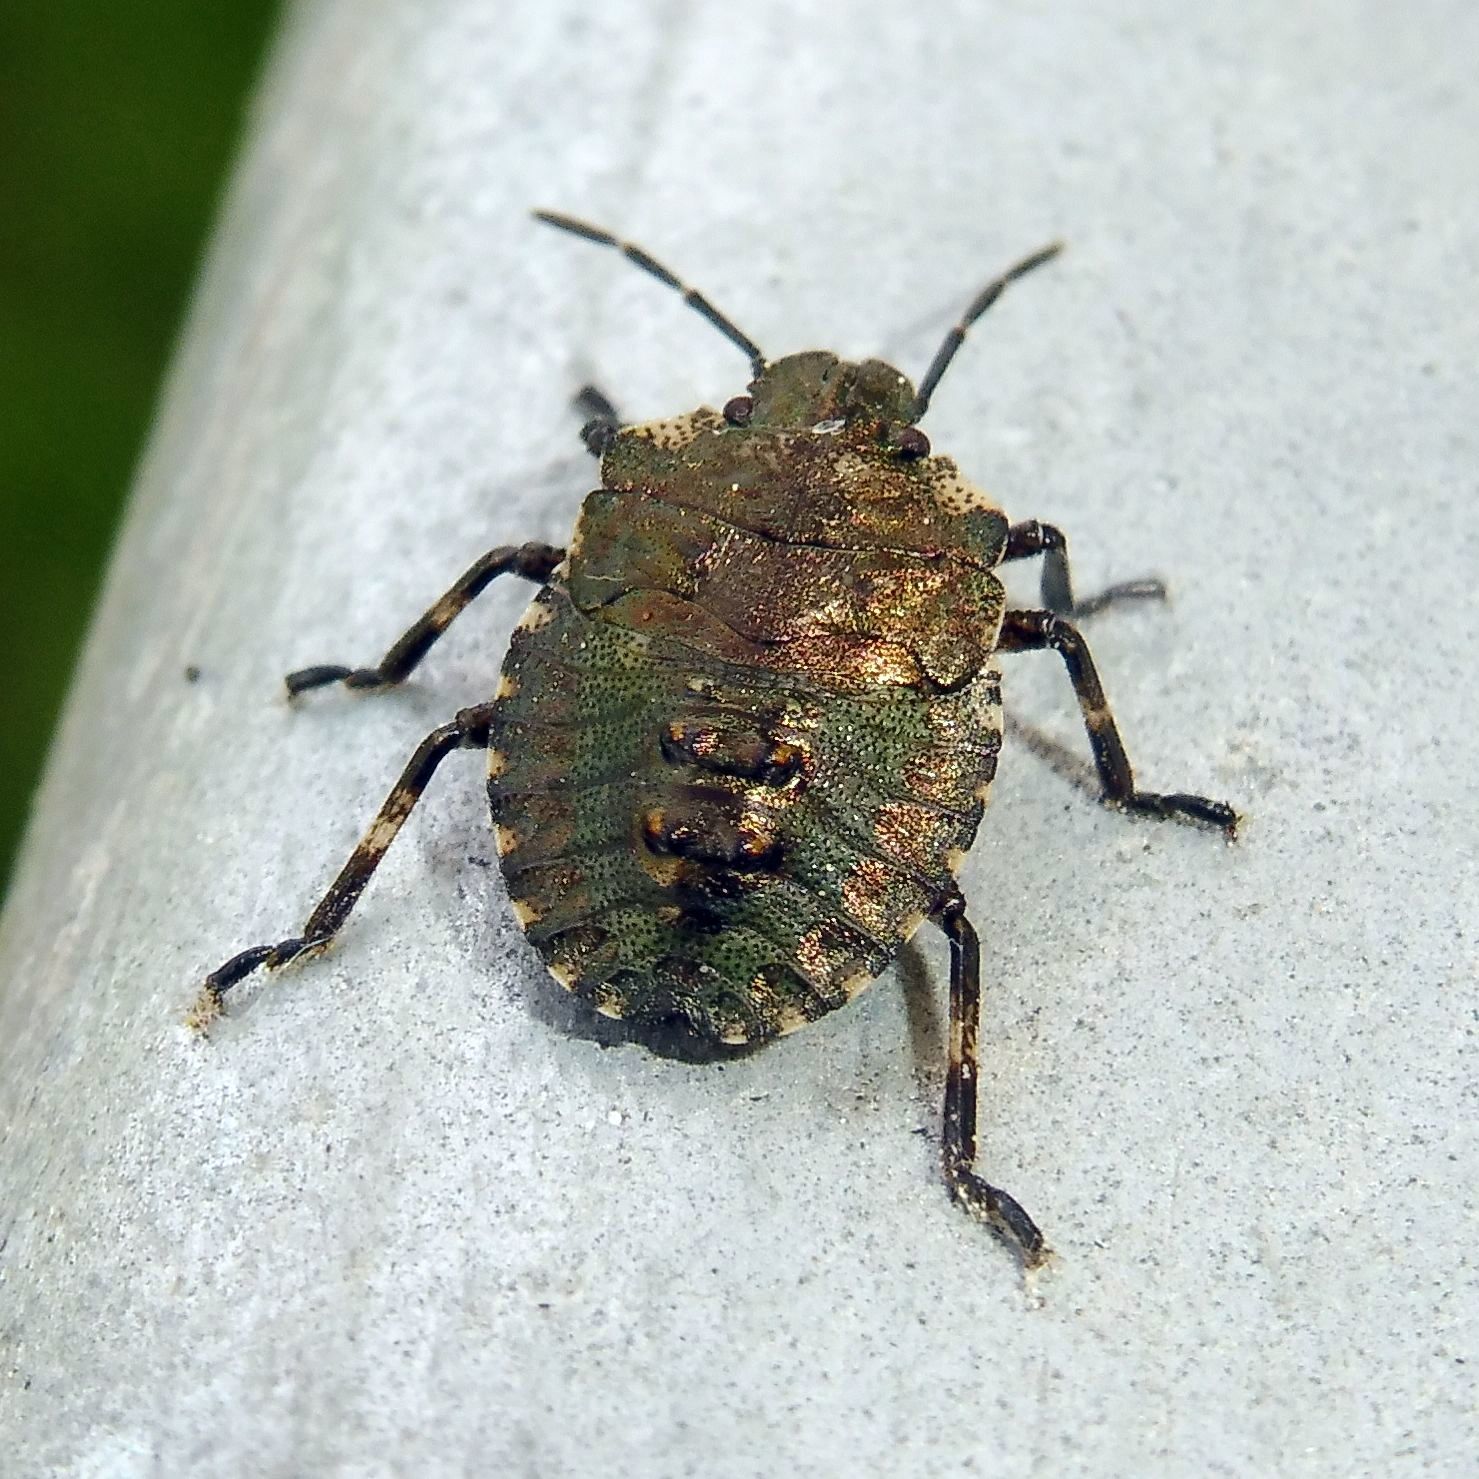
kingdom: Animalia
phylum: Arthropoda
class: Insecta
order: Hemiptera
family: Pentatomidae
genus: Pentatoma
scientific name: Pentatoma rufipes
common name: Forest bug
